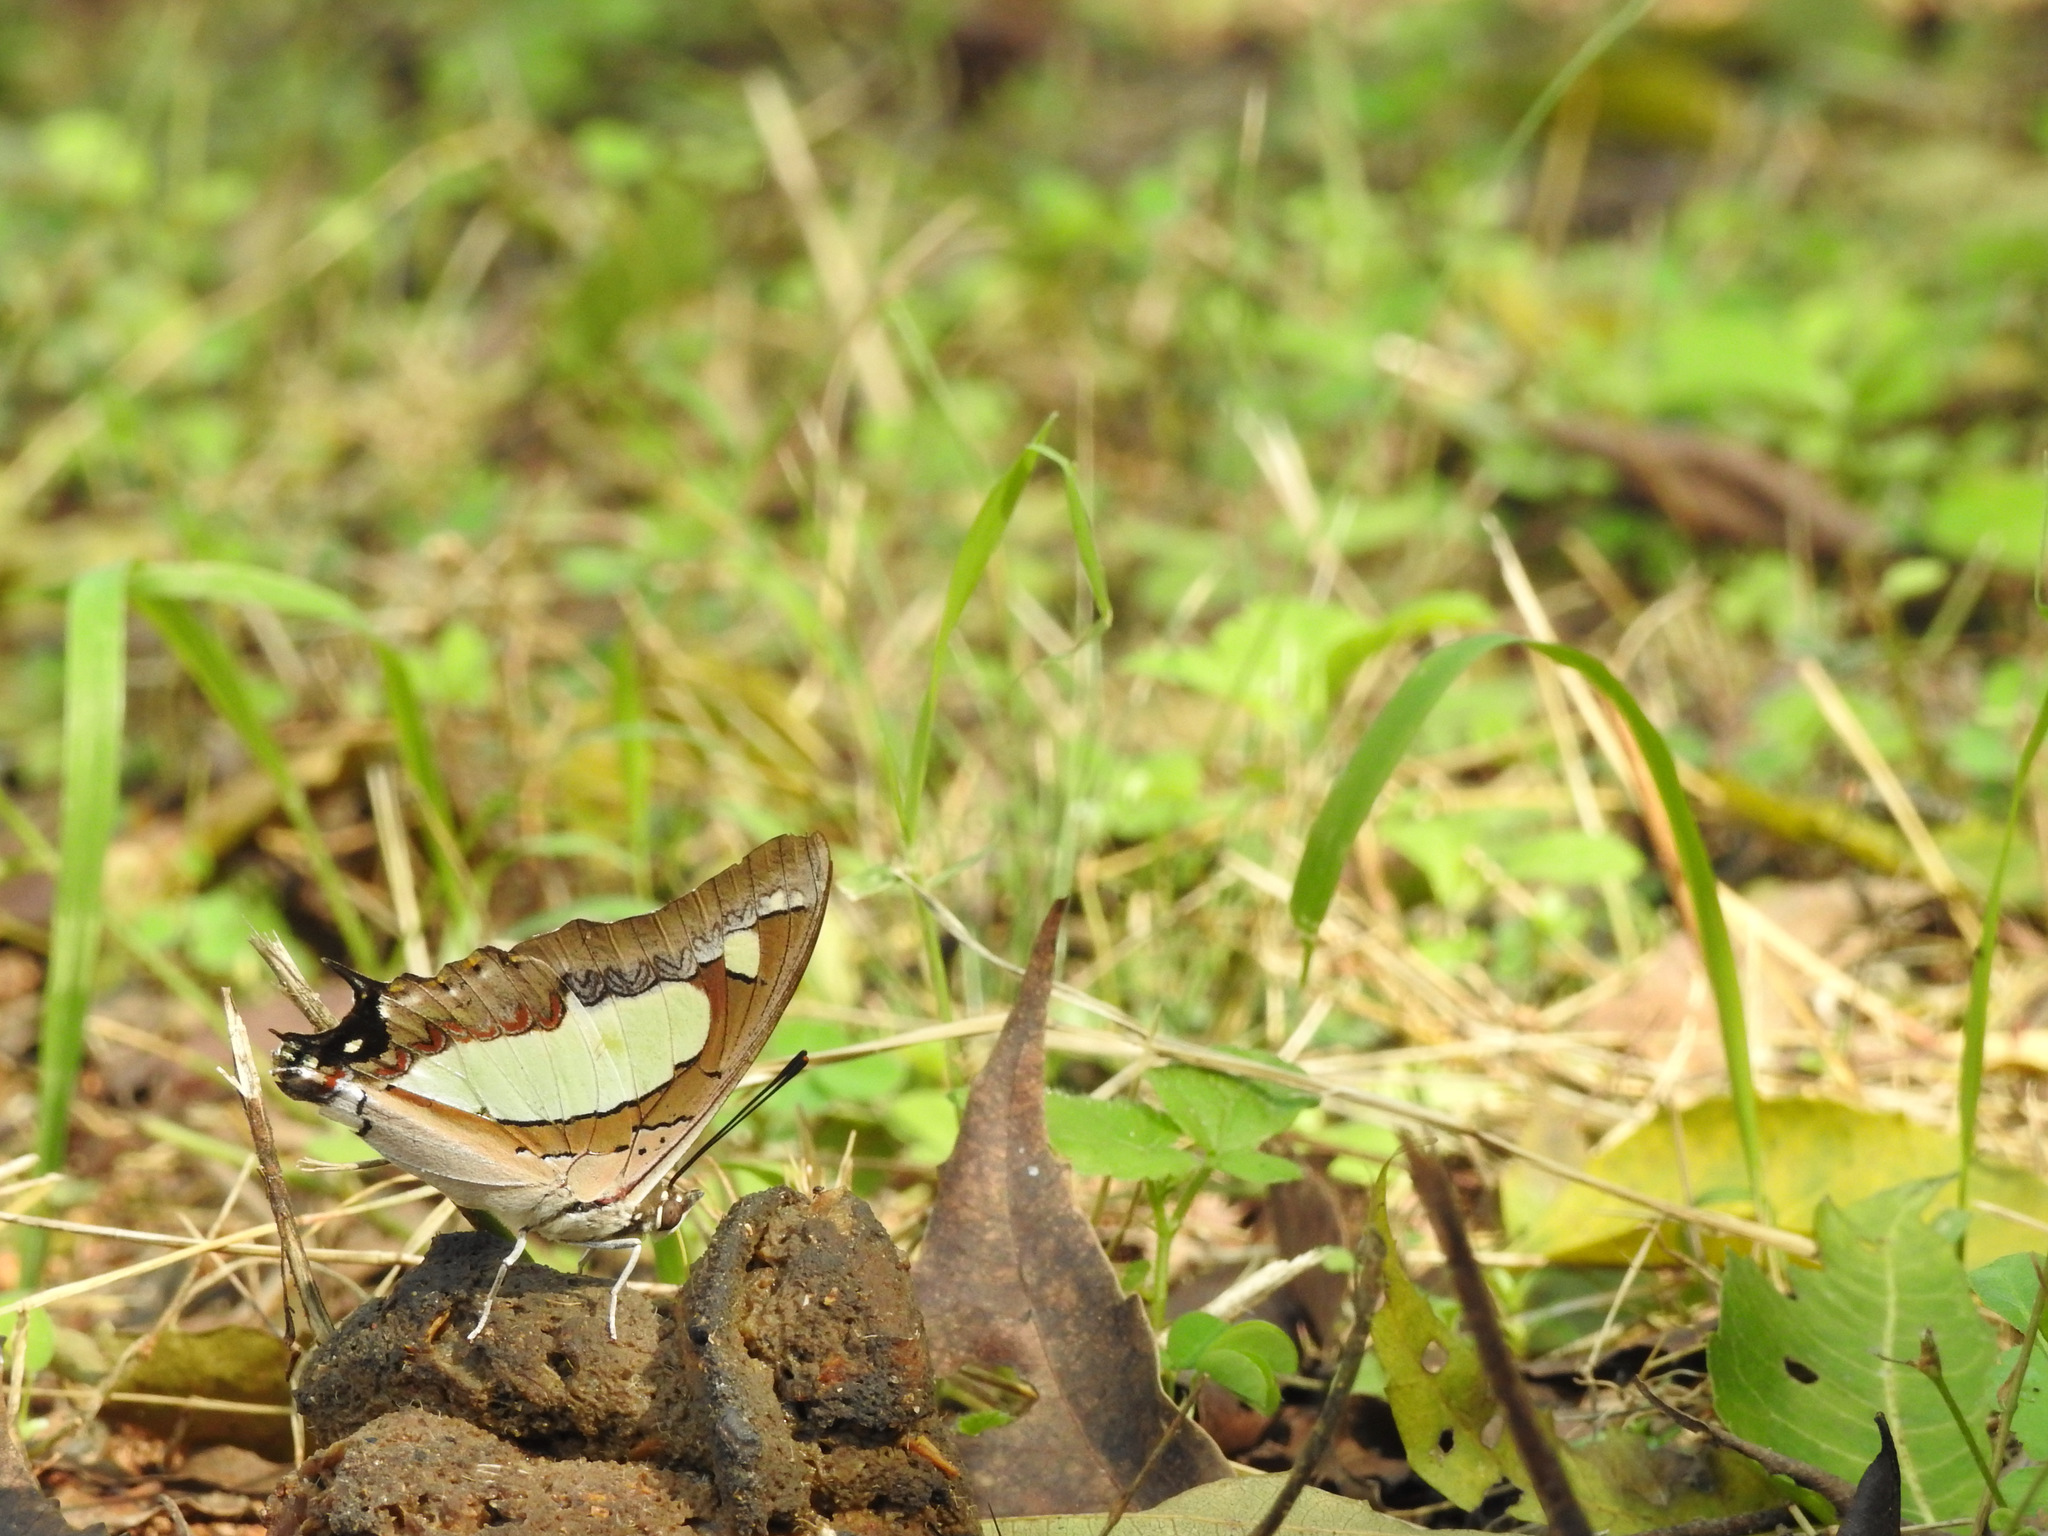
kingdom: Animalia
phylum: Arthropoda
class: Insecta
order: Lepidoptera
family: Nymphalidae
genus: Polyura
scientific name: Polyura agrarius
